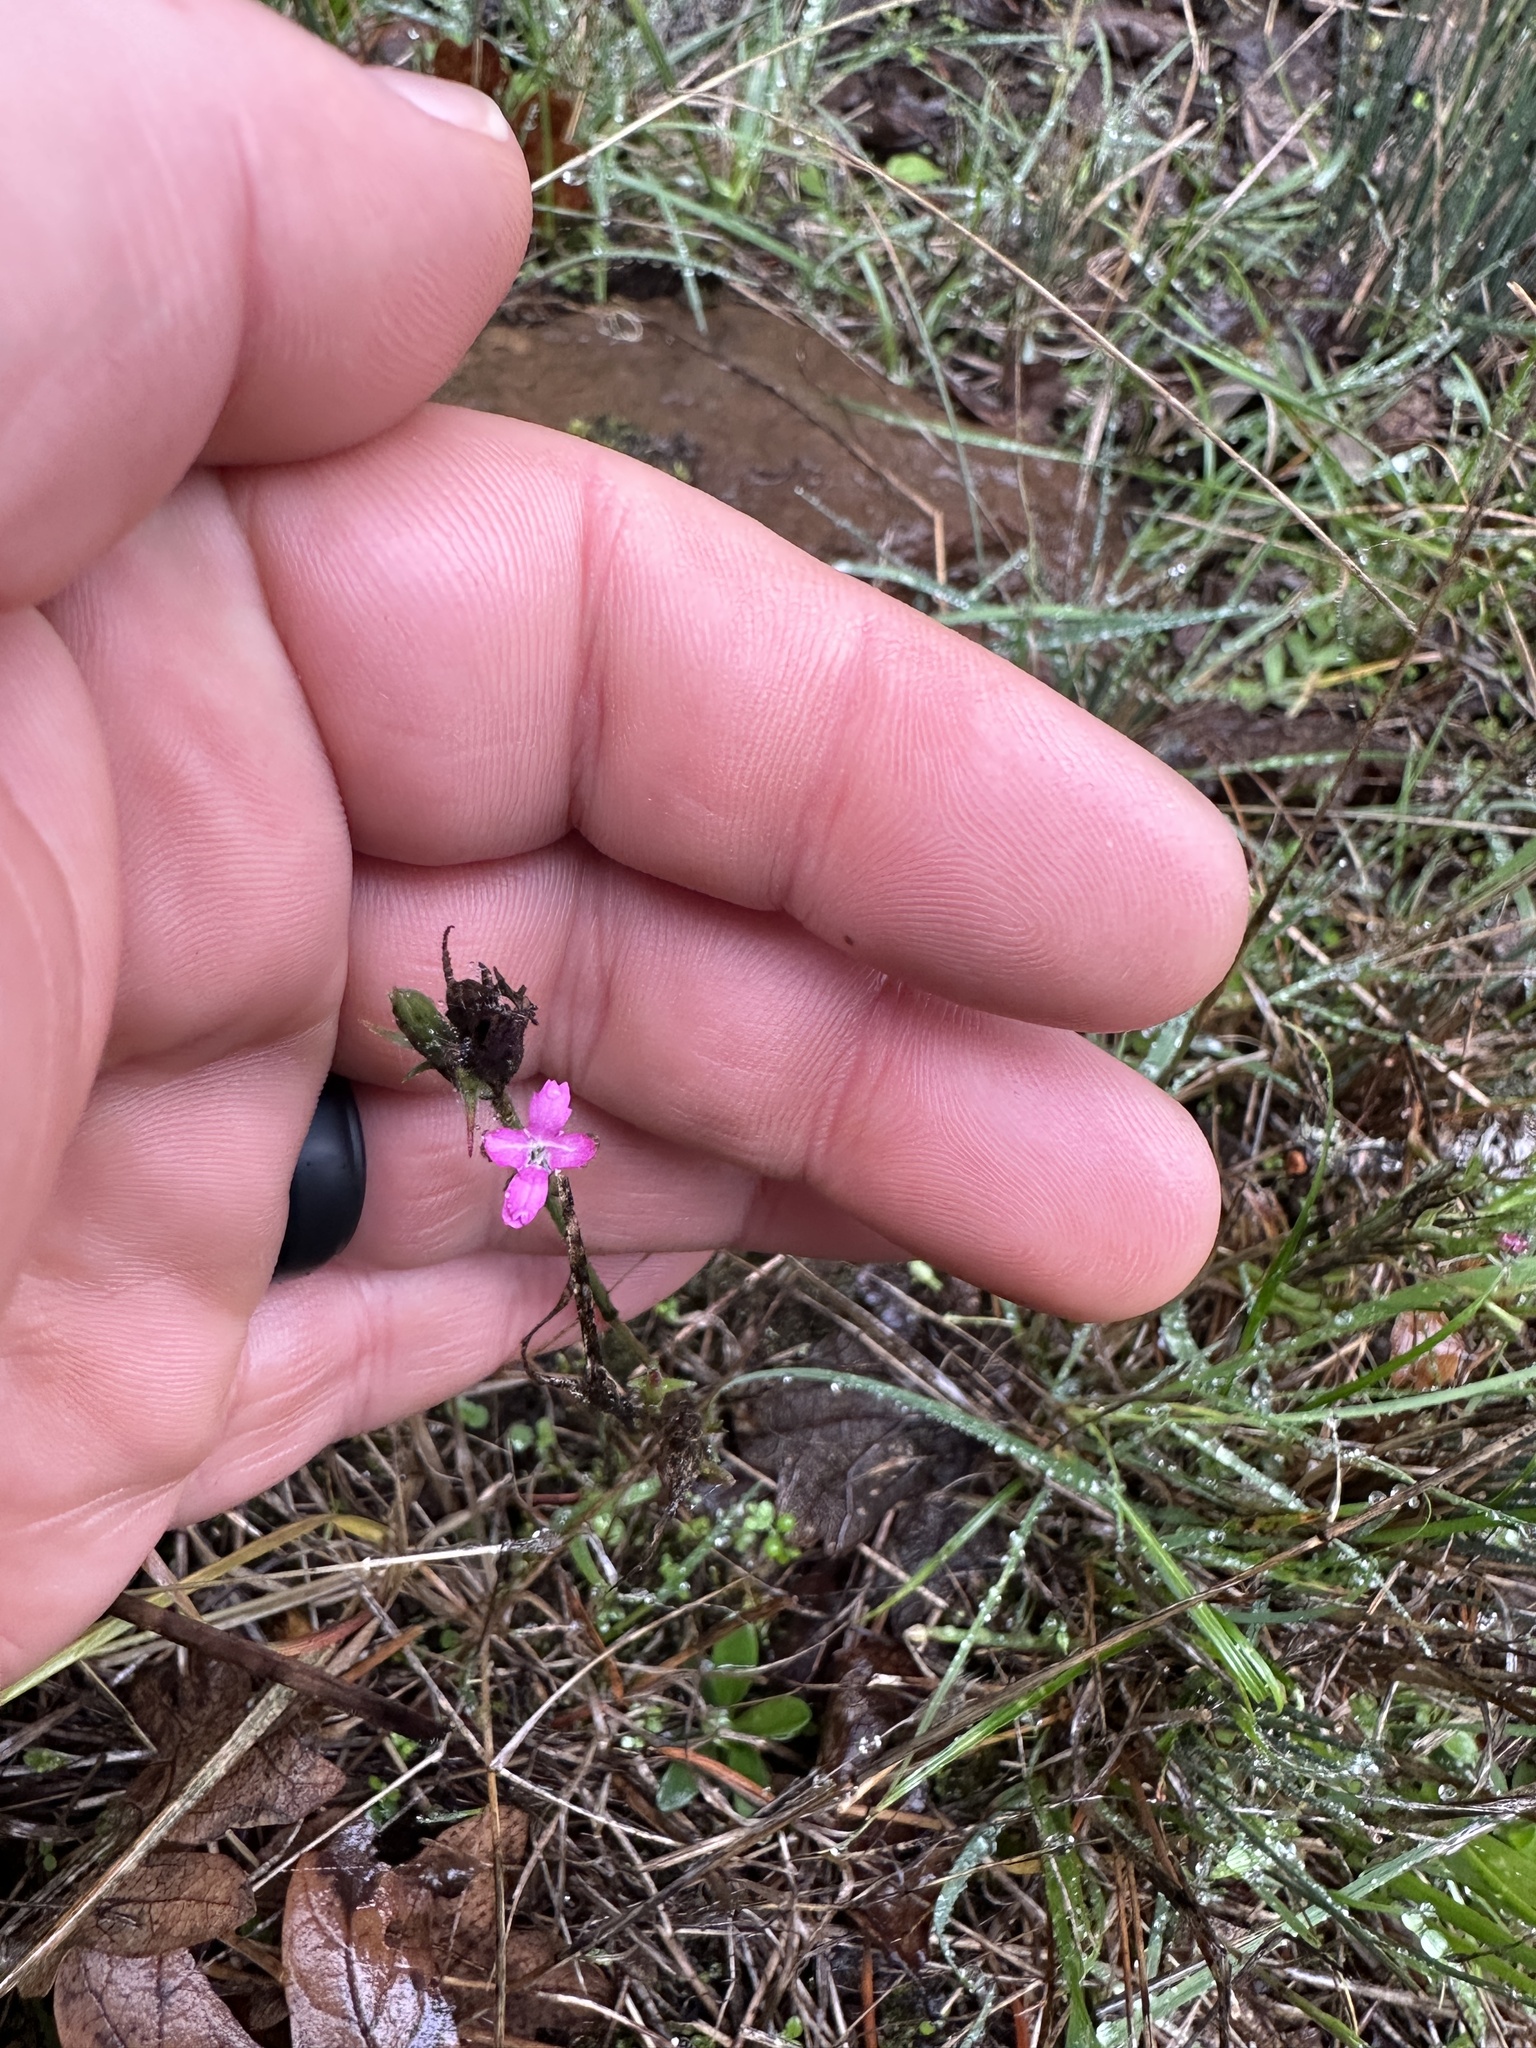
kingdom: Plantae
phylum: Tracheophyta
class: Magnoliopsida
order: Caryophyllales
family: Caryophyllaceae
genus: Dianthus
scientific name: Dianthus armeria
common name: Deptford pink
